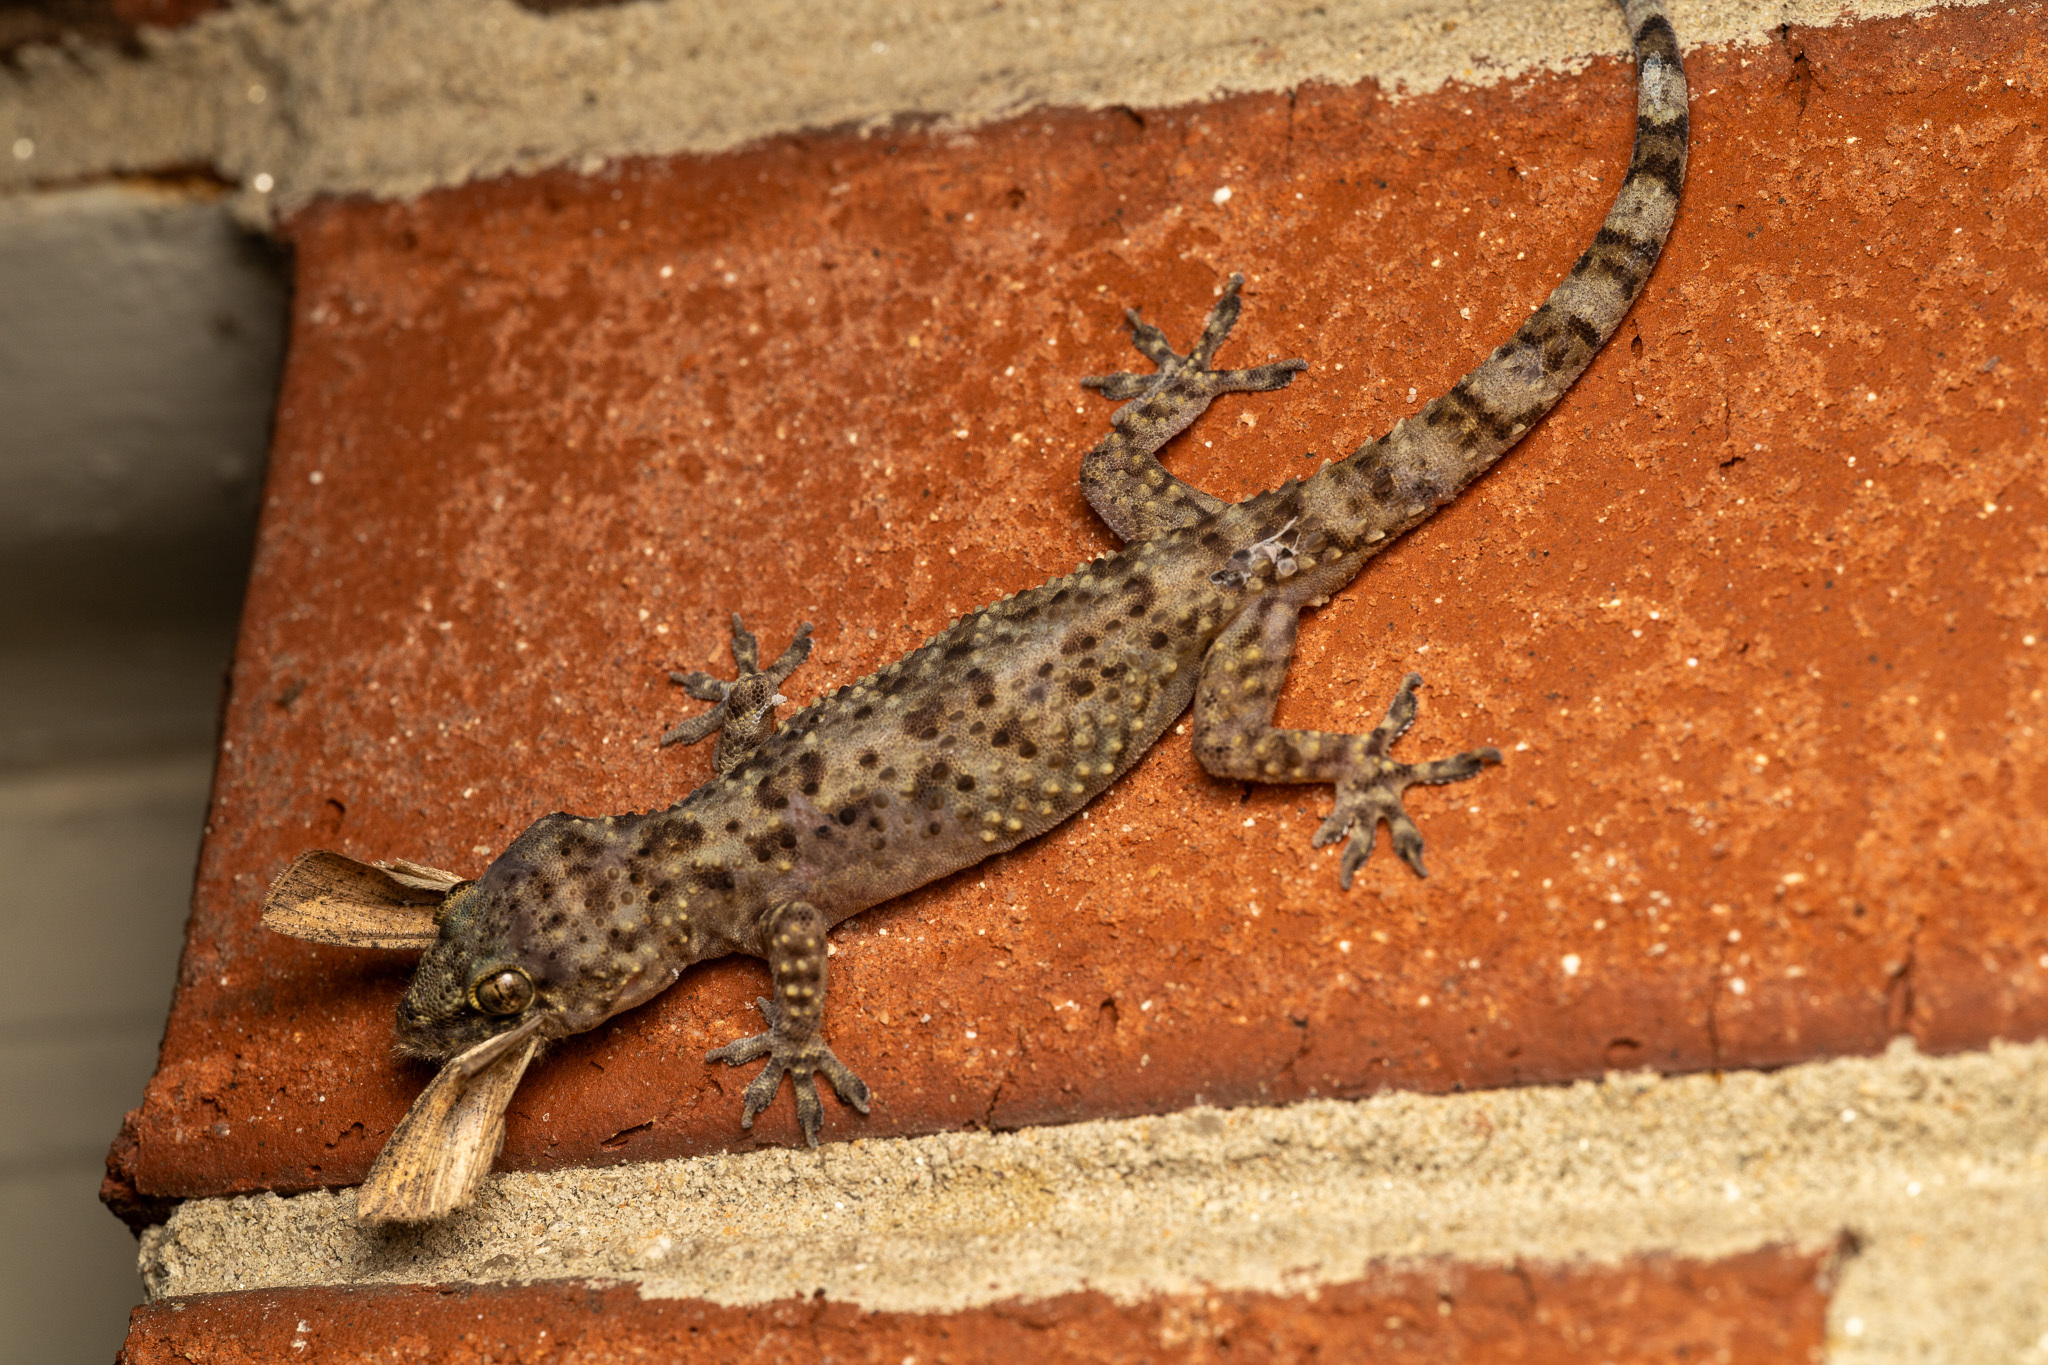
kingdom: Animalia
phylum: Chordata
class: Squamata
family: Gekkonidae
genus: Hemidactylus
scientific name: Hemidactylus turcicus
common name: Turkish gecko
